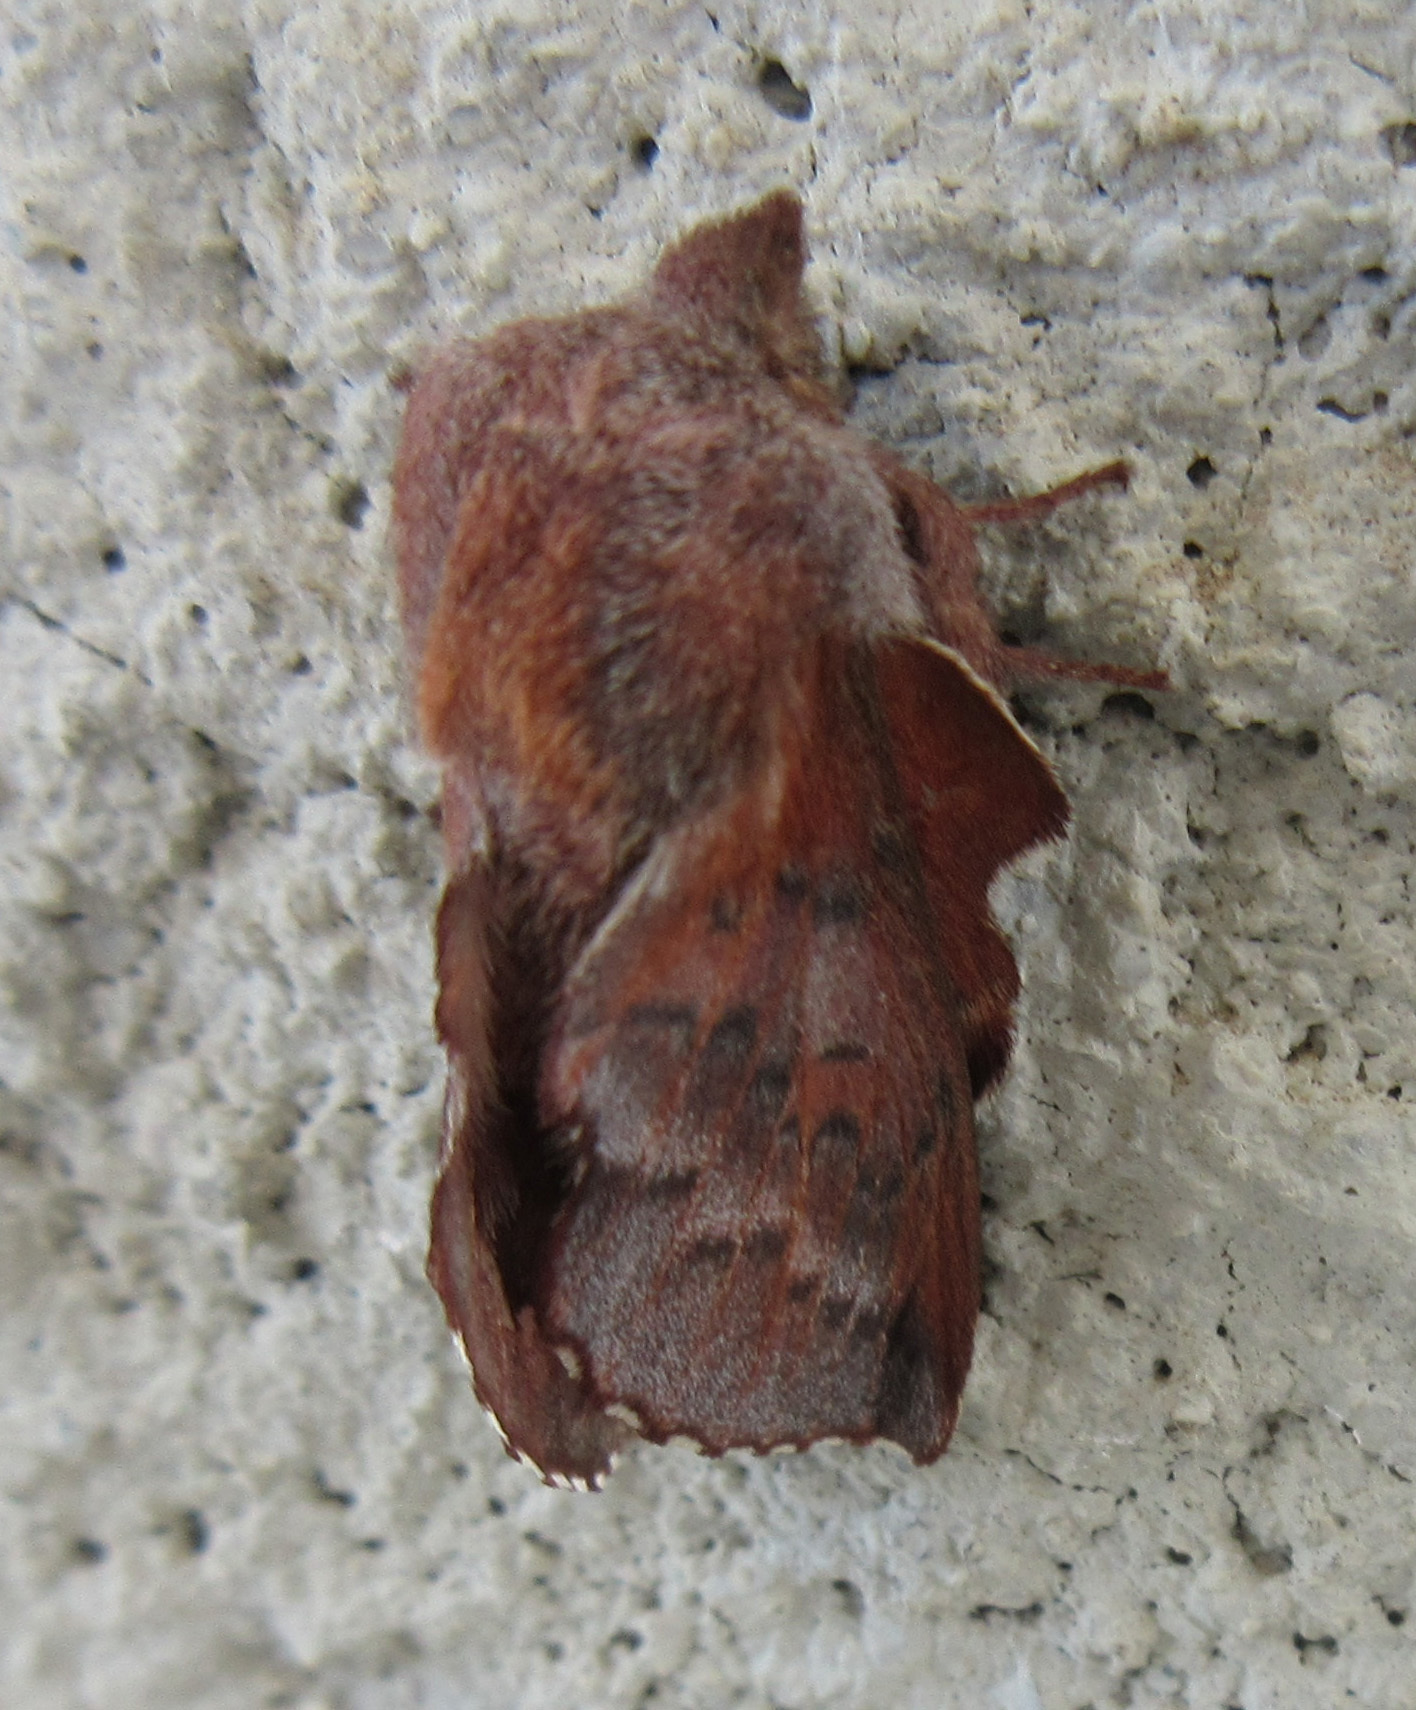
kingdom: Animalia
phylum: Arthropoda
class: Insecta
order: Lepidoptera
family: Lasiocampidae
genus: Phyllodesma
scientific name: Phyllodesma americana
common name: American lappet moth
